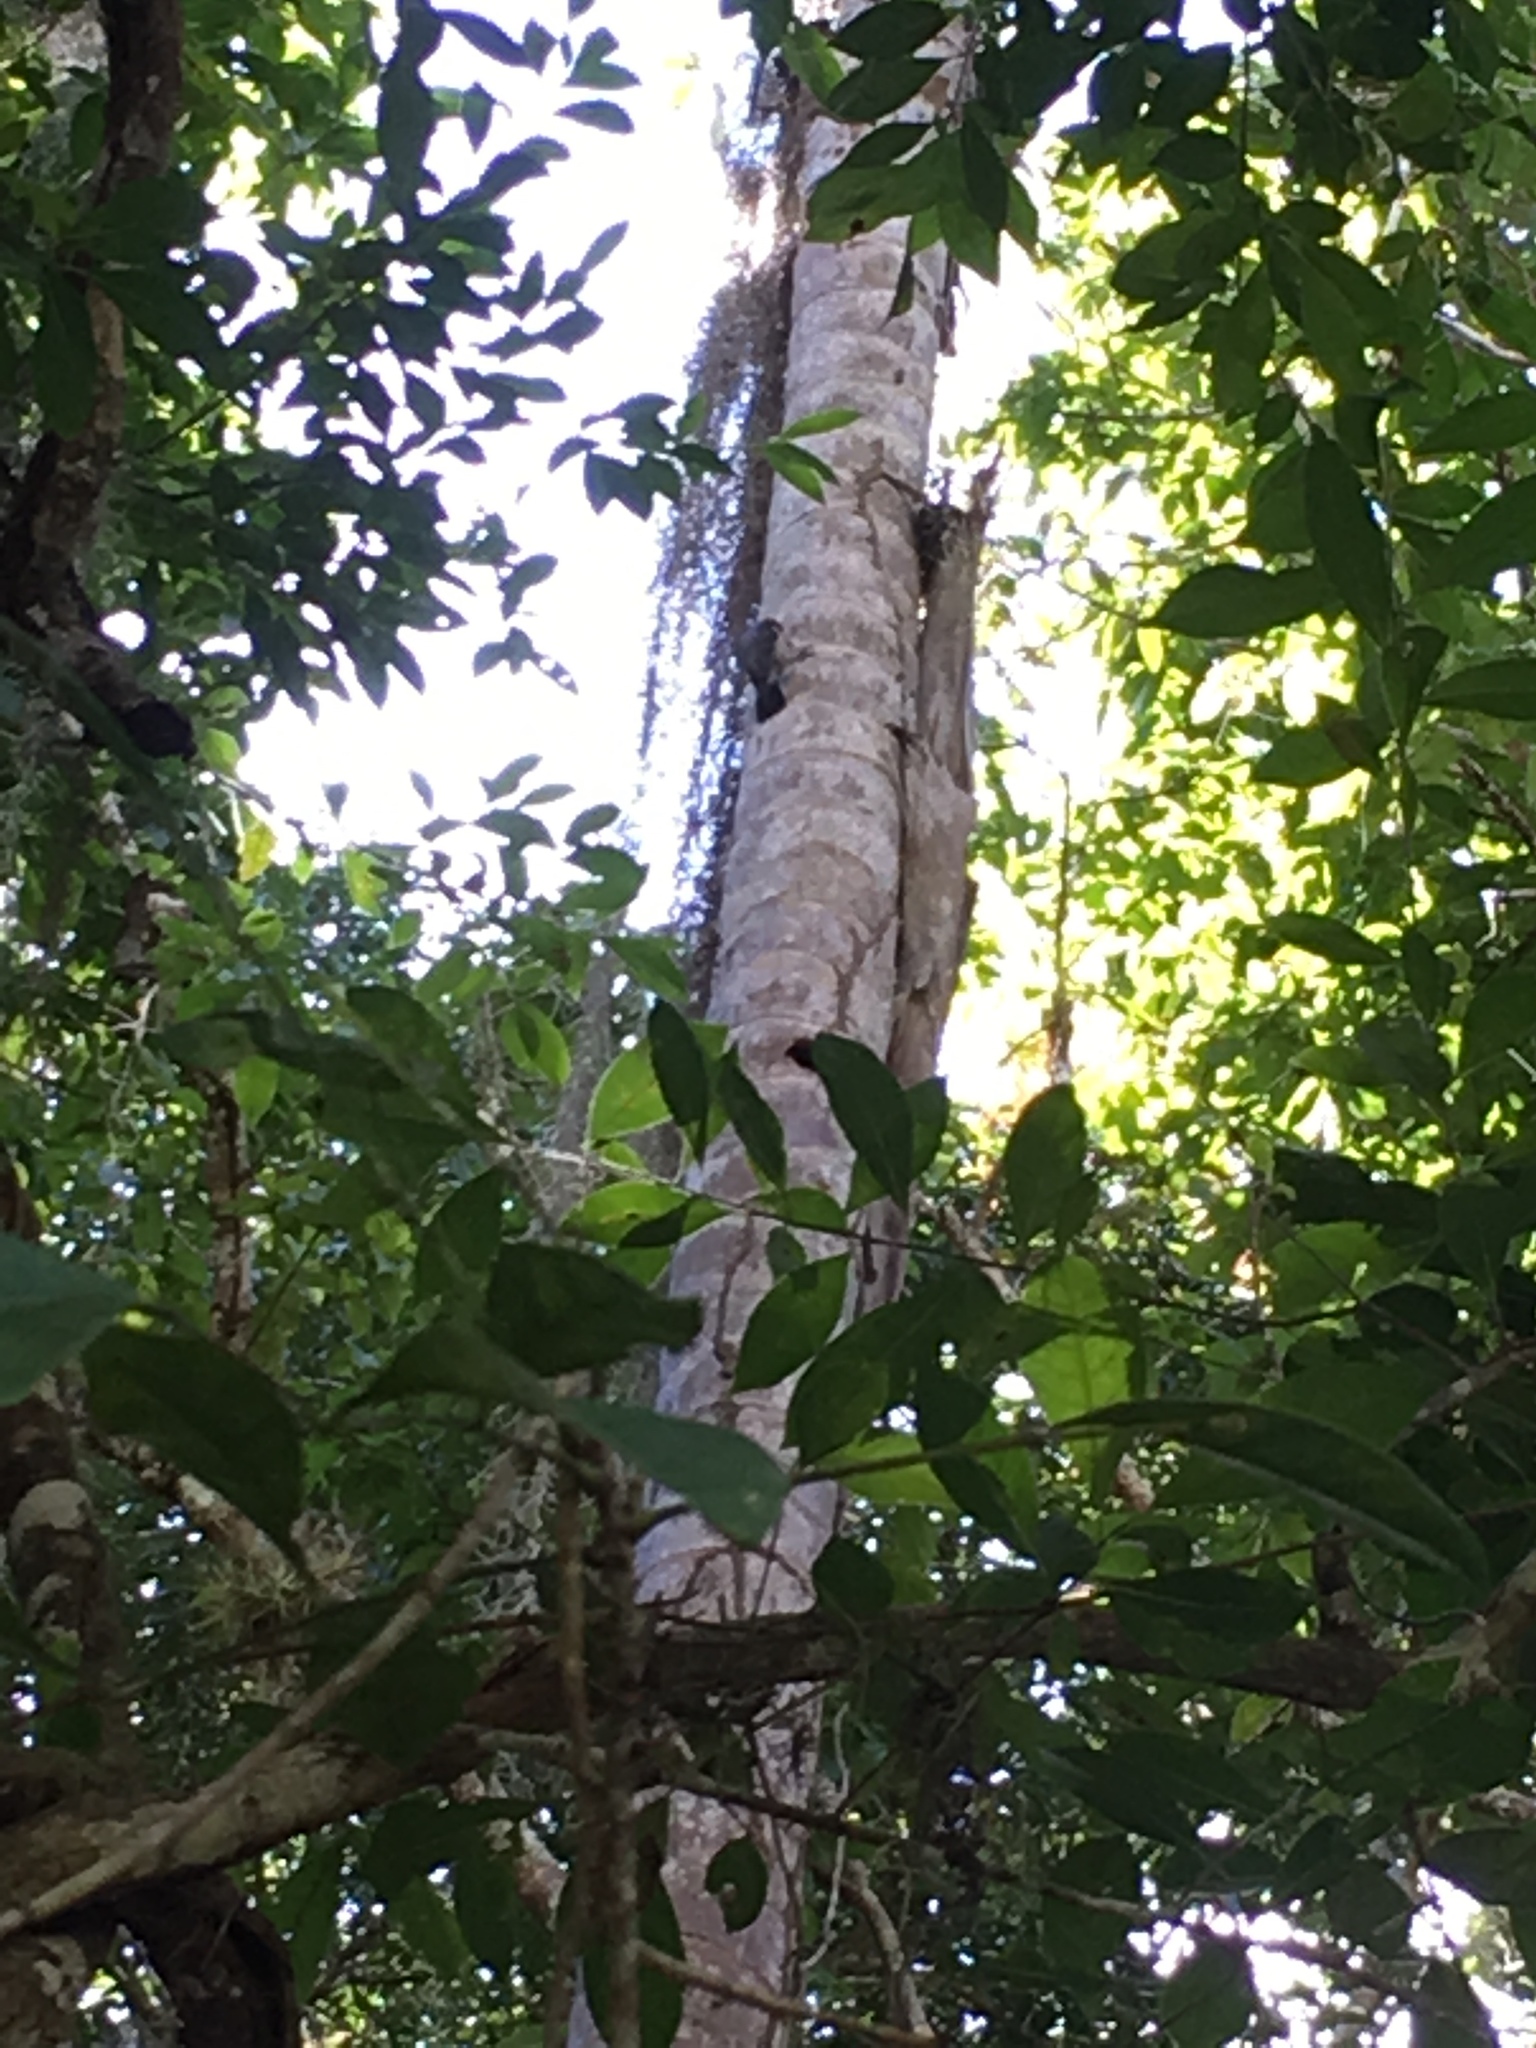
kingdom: Animalia
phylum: Chordata
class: Aves
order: Piciformes
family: Picidae
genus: Melanerpes
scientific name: Melanerpes formicivorus
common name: Acorn woodpecker
